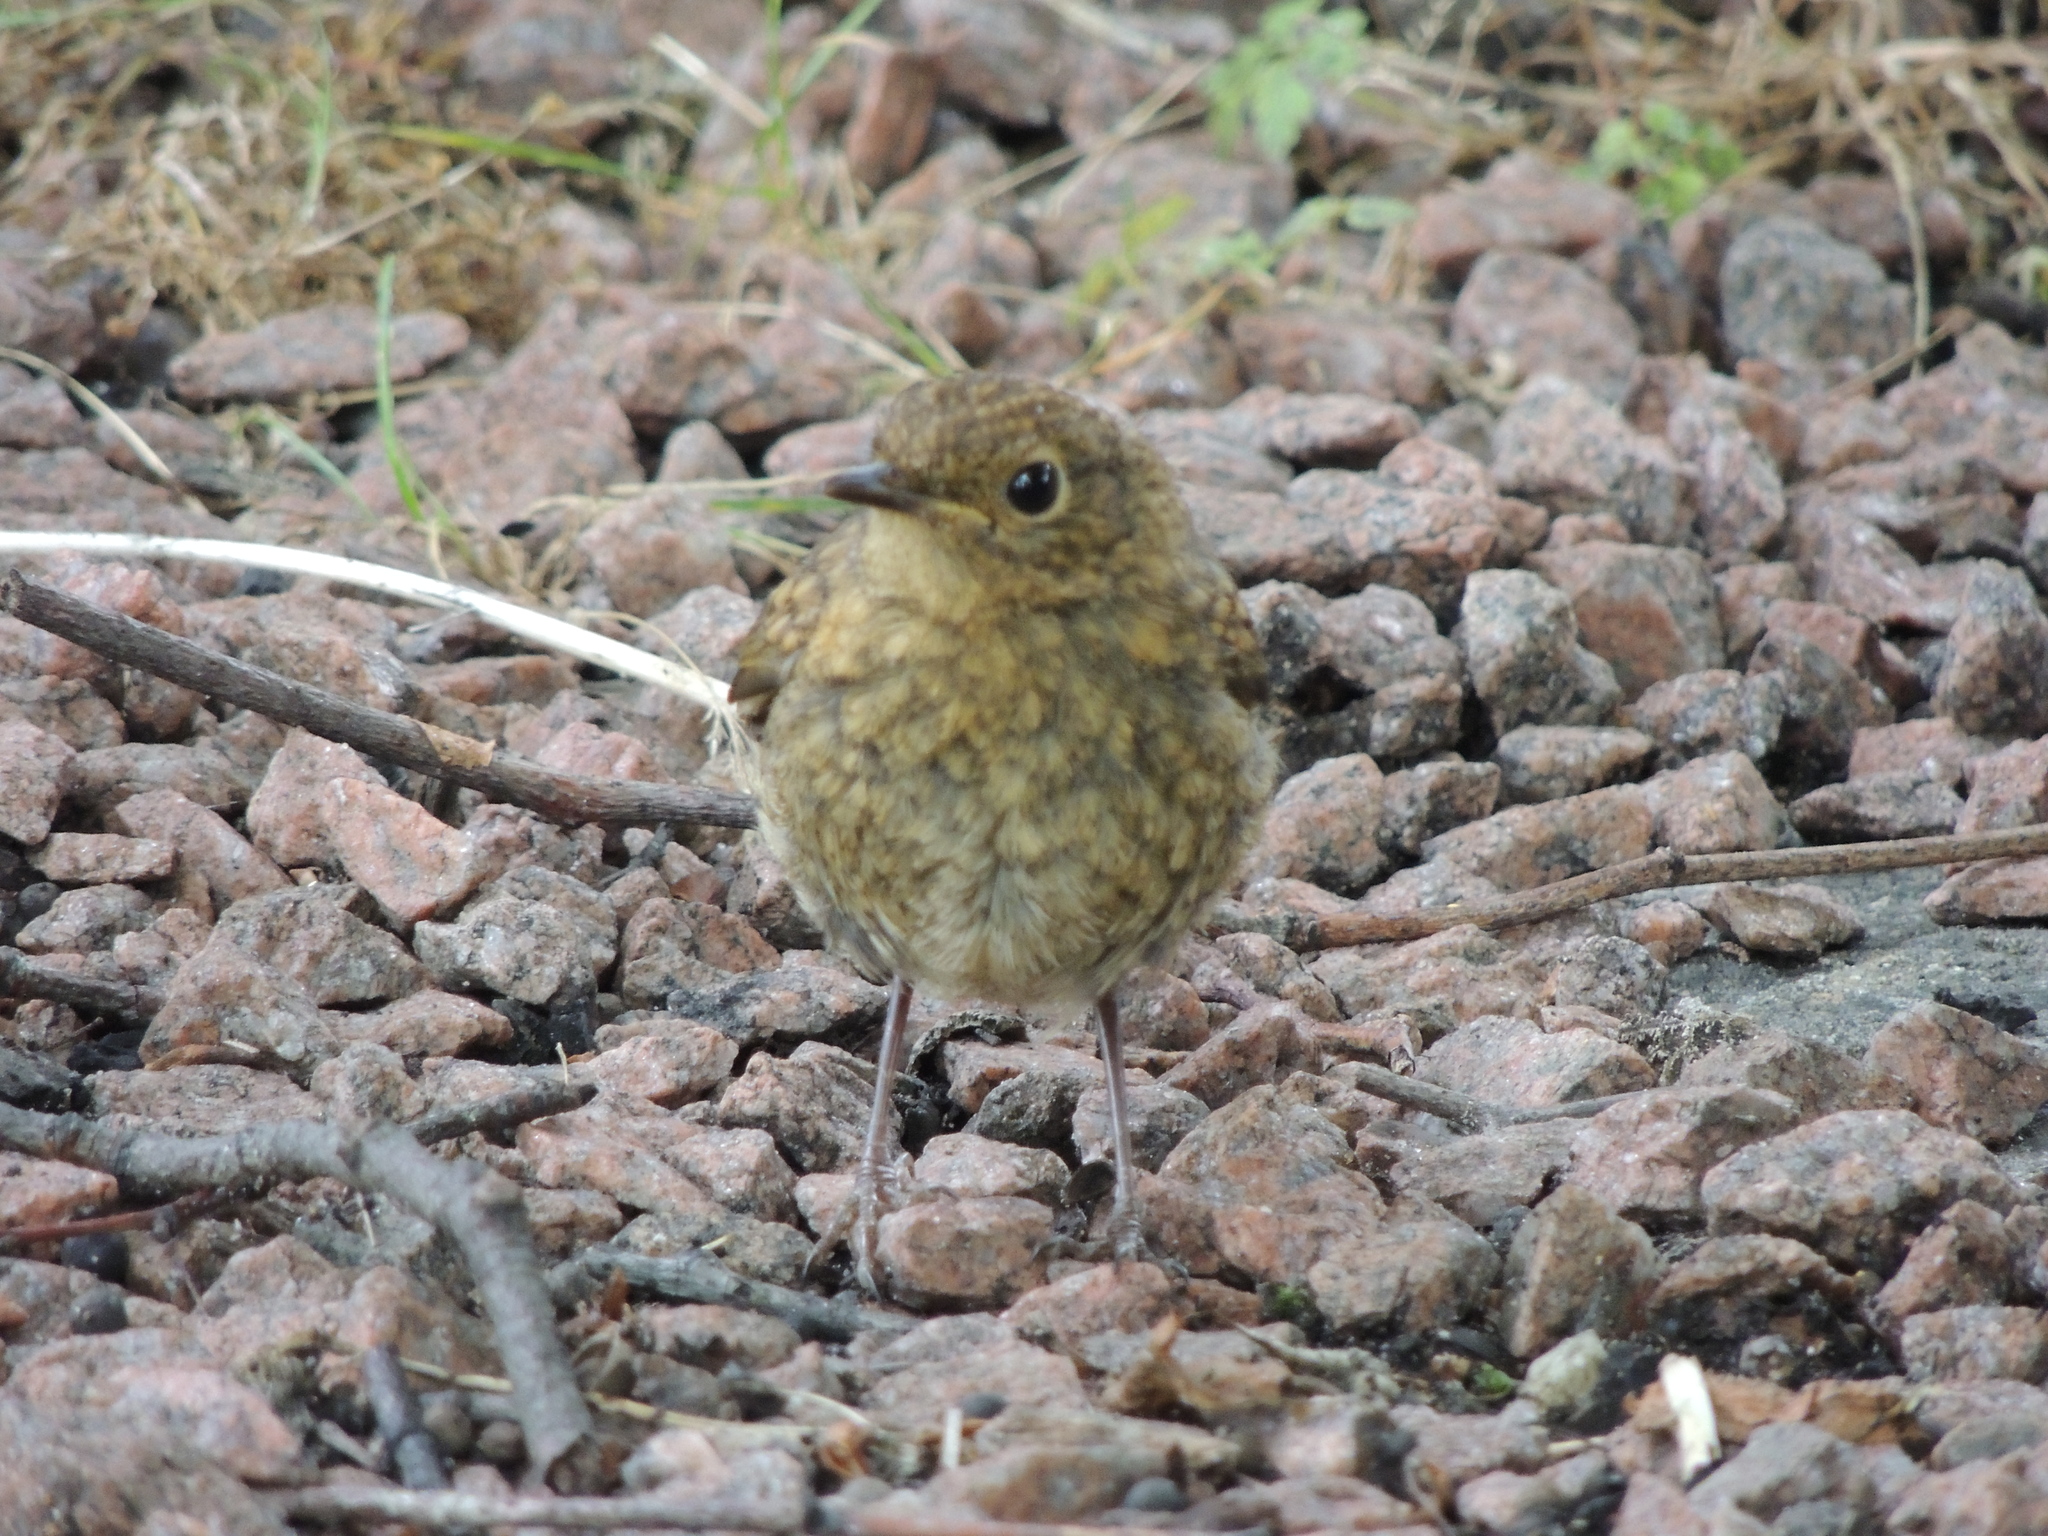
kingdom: Animalia
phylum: Chordata
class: Aves
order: Passeriformes
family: Muscicapidae
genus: Erithacus
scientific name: Erithacus rubecula
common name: European robin
